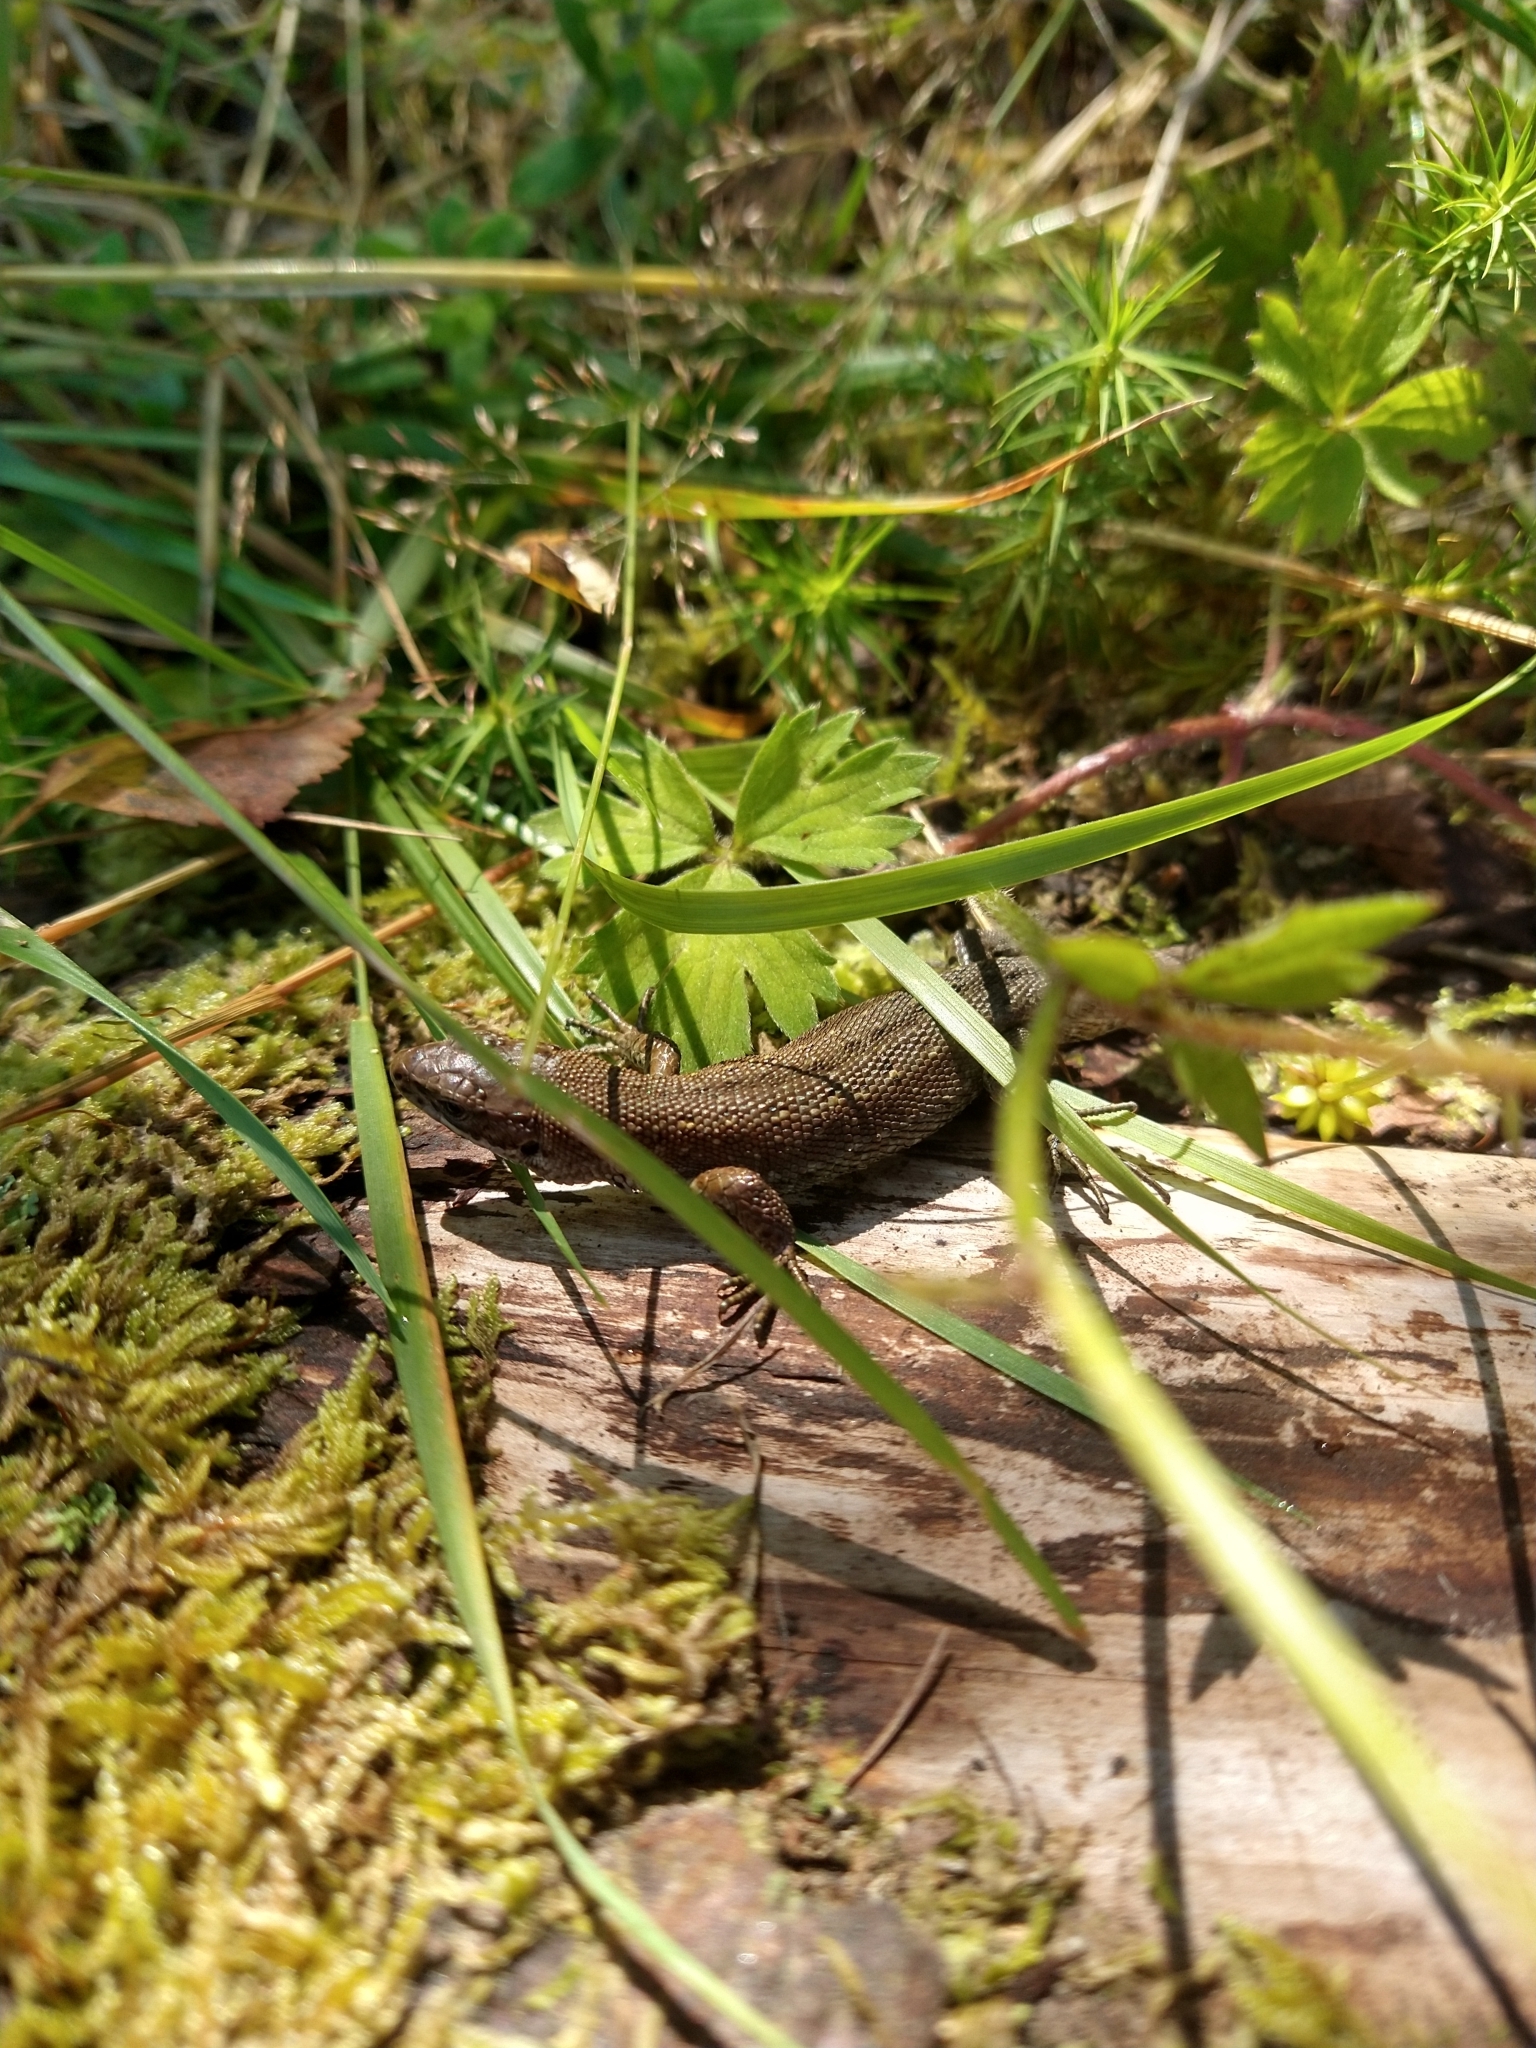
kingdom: Animalia
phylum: Chordata
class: Squamata
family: Lacertidae
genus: Zootoca
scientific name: Zootoca vivipara
